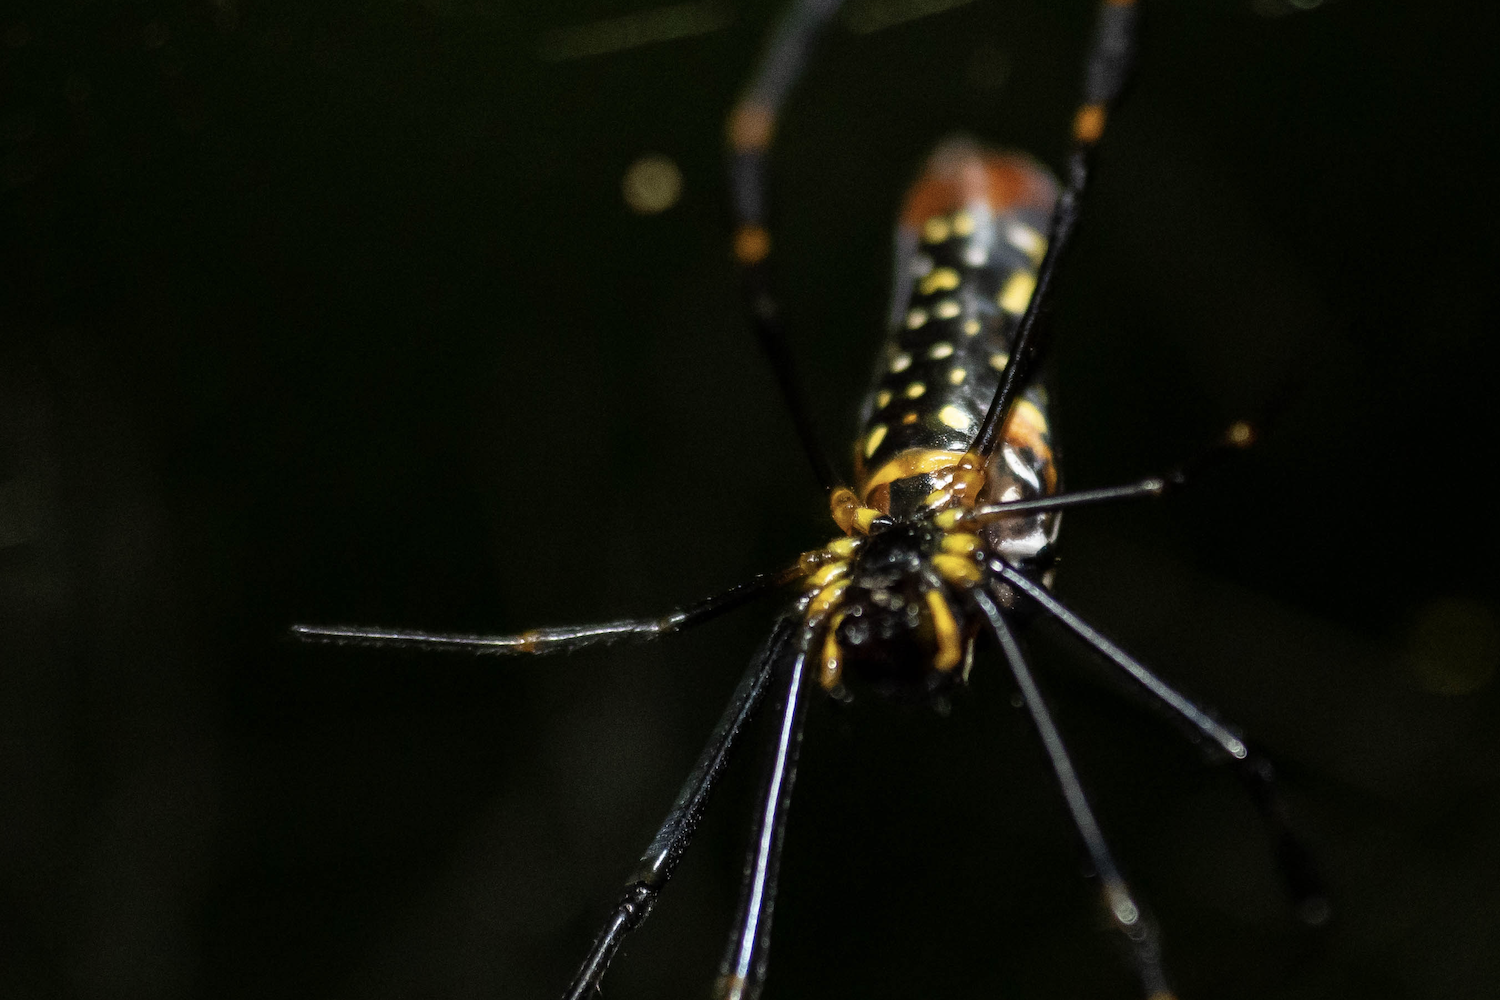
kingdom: Animalia
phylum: Arthropoda
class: Arachnida
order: Araneae
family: Araneidae
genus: Nephila
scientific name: Nephila pilipes
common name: Giant golden orb weaver
